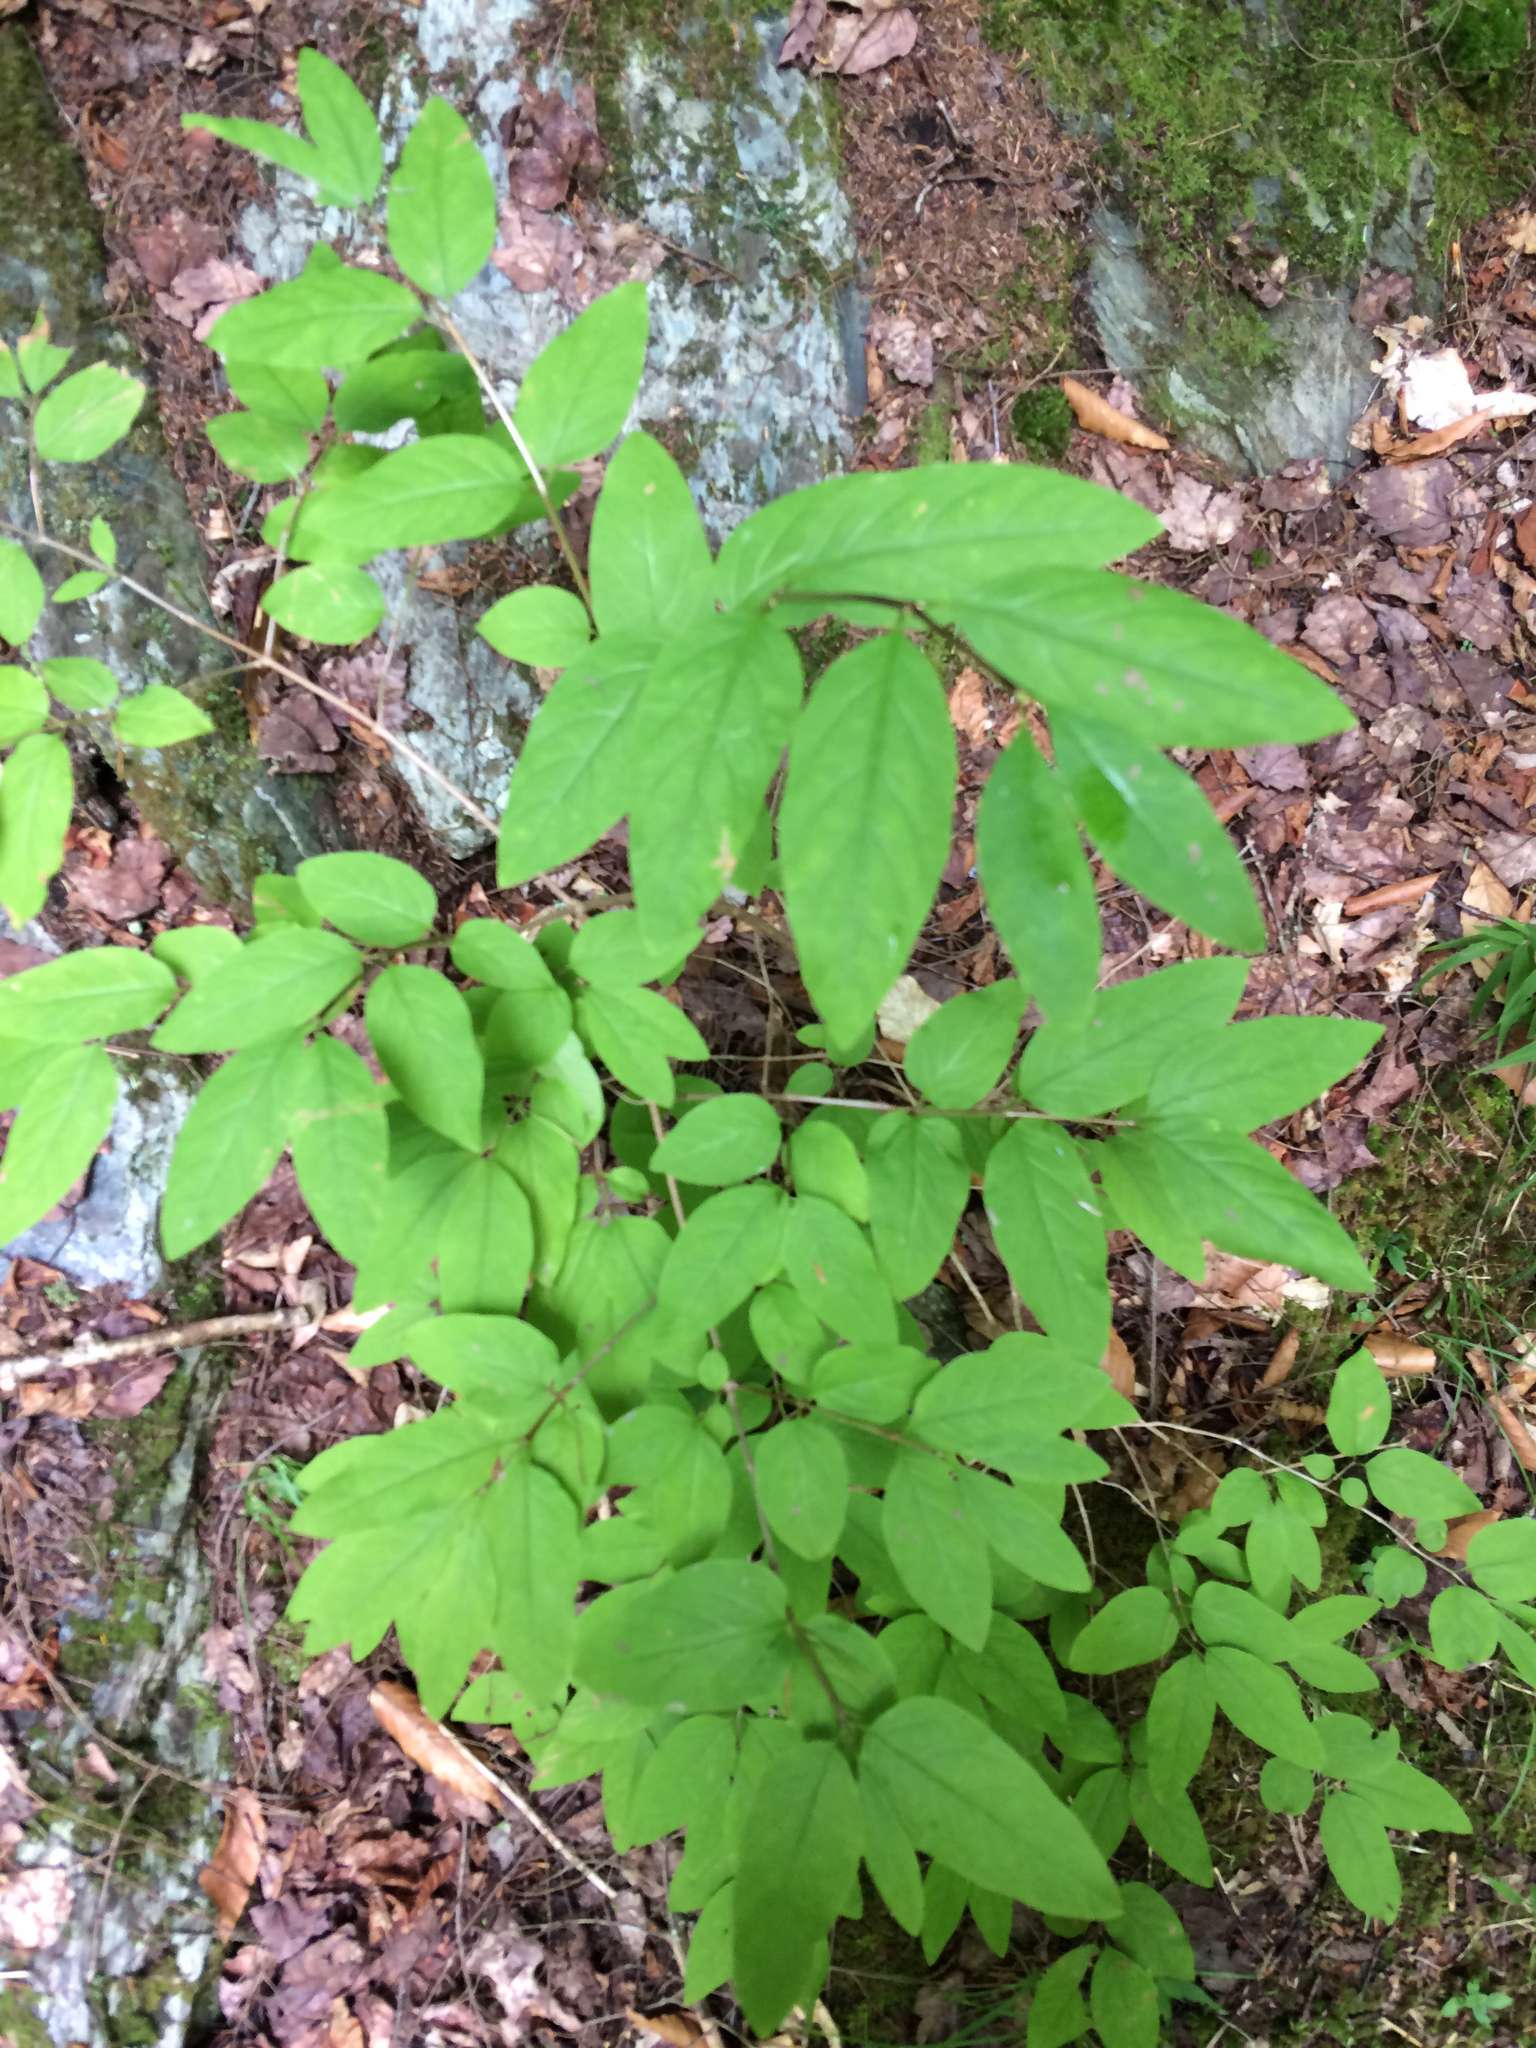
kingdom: Plantae
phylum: Tracheophyta
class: Magnoliopsida
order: Dipsacales
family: Caprifoliaceae
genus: Lonicera
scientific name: Lonicera canadensis
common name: American fly-honeysuckle
